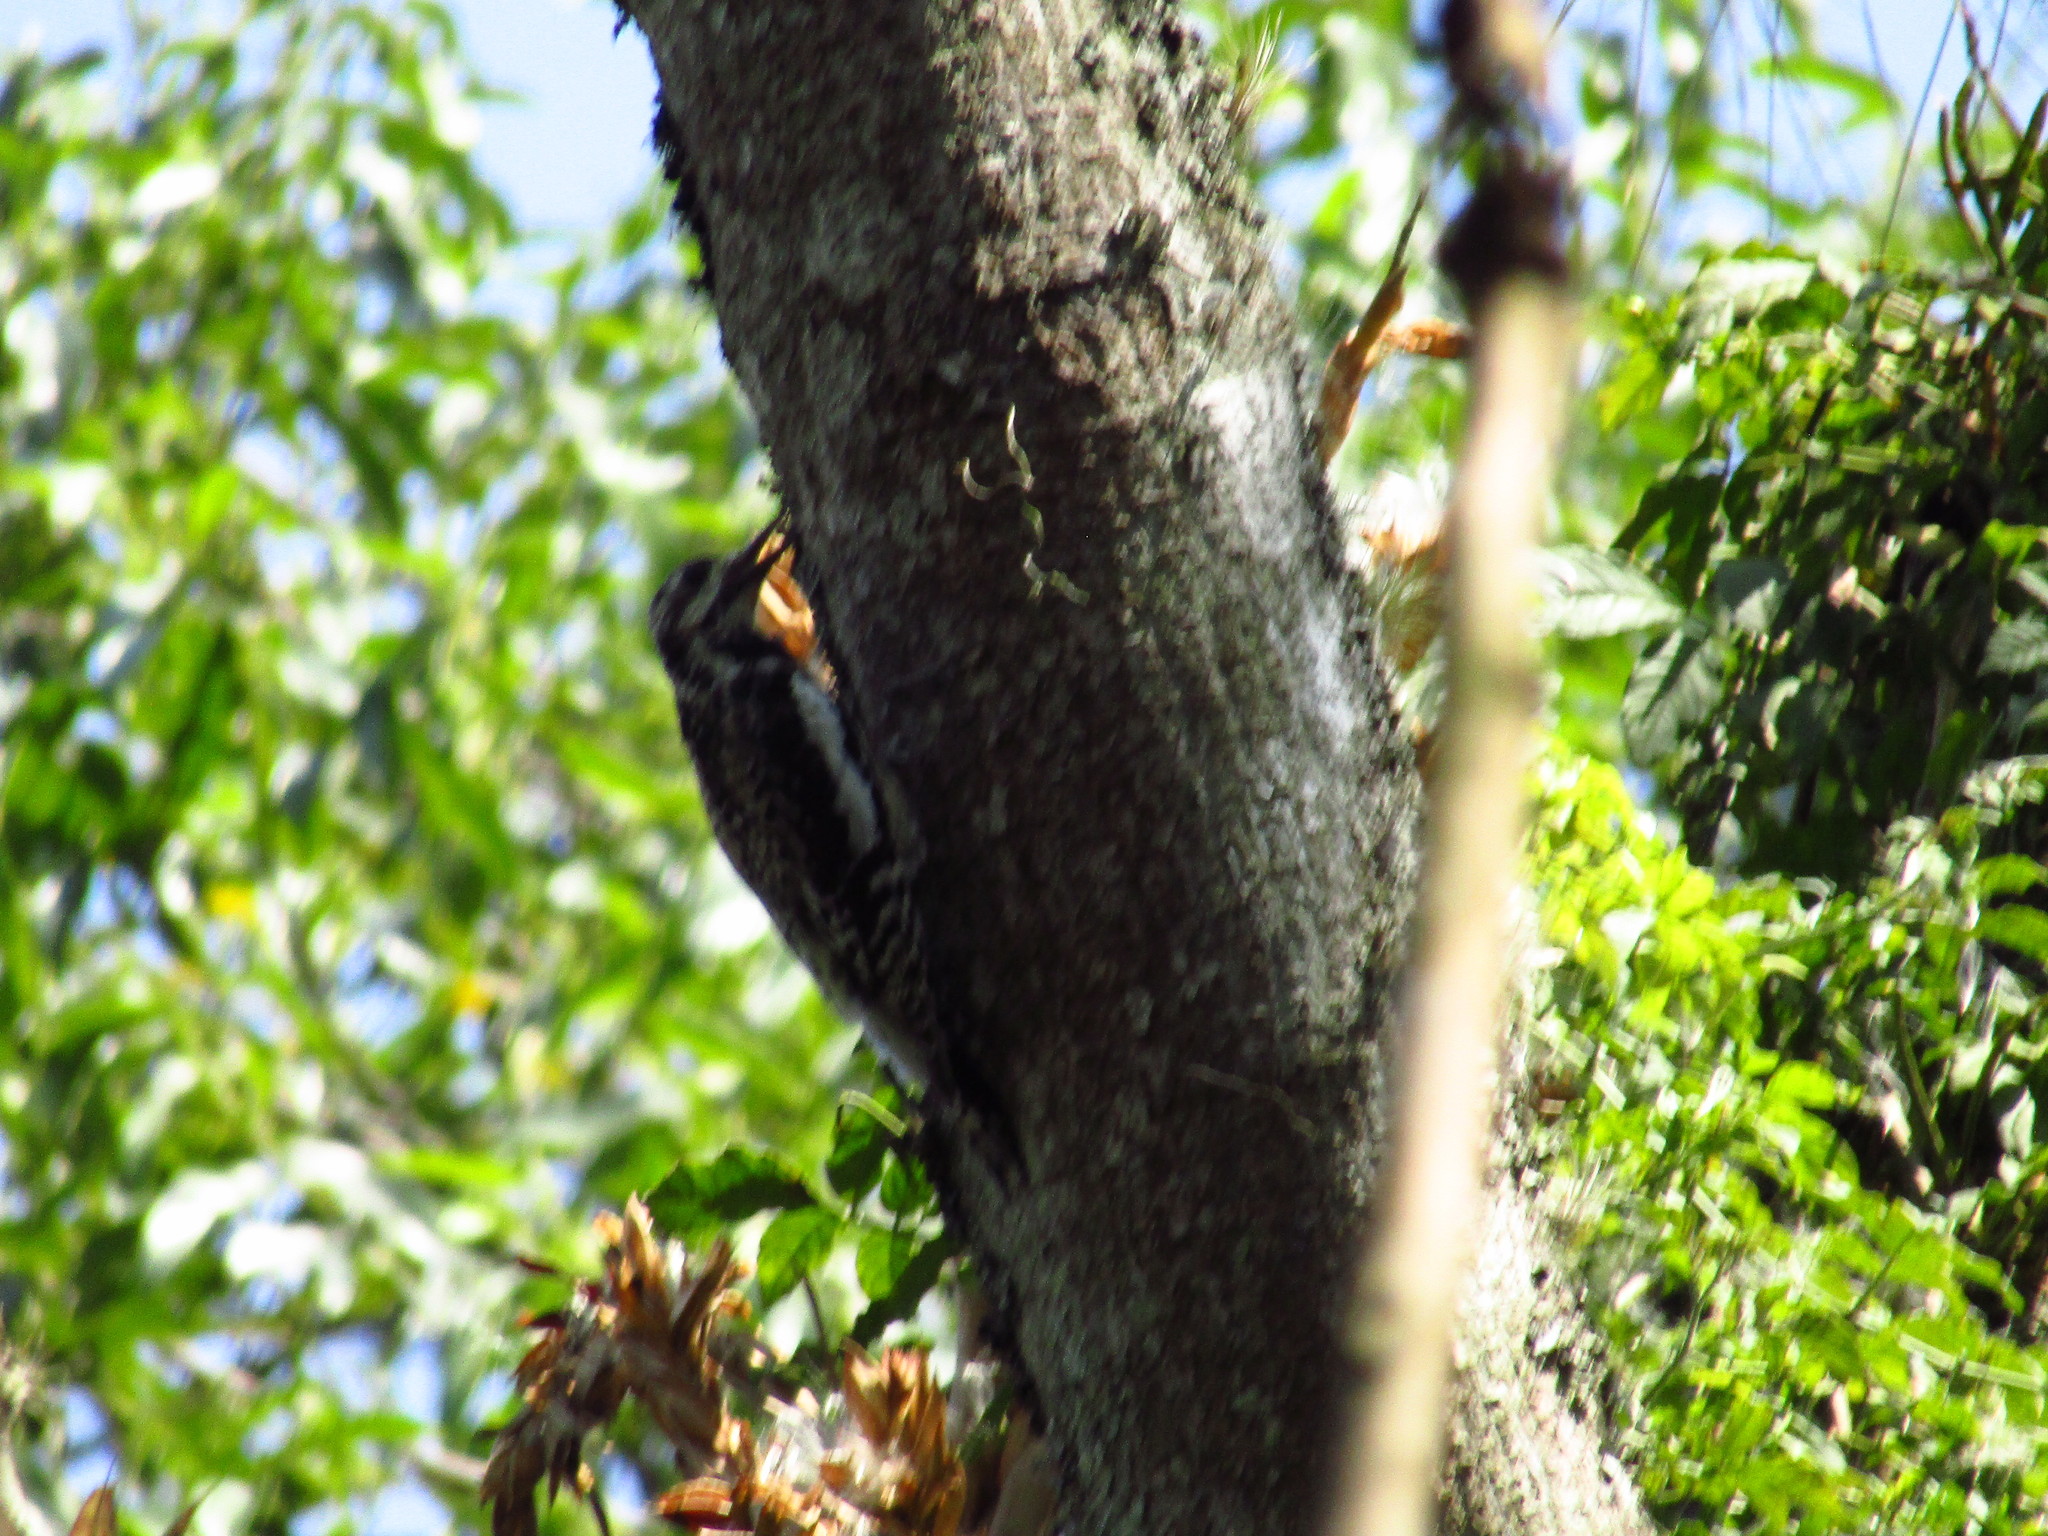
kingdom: Animalia
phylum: Chordata
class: Aves
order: Piciformes
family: Picidae
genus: Sphyrapicus
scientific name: Sphyrapicus varius
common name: Yellow-bellied sapsucker
